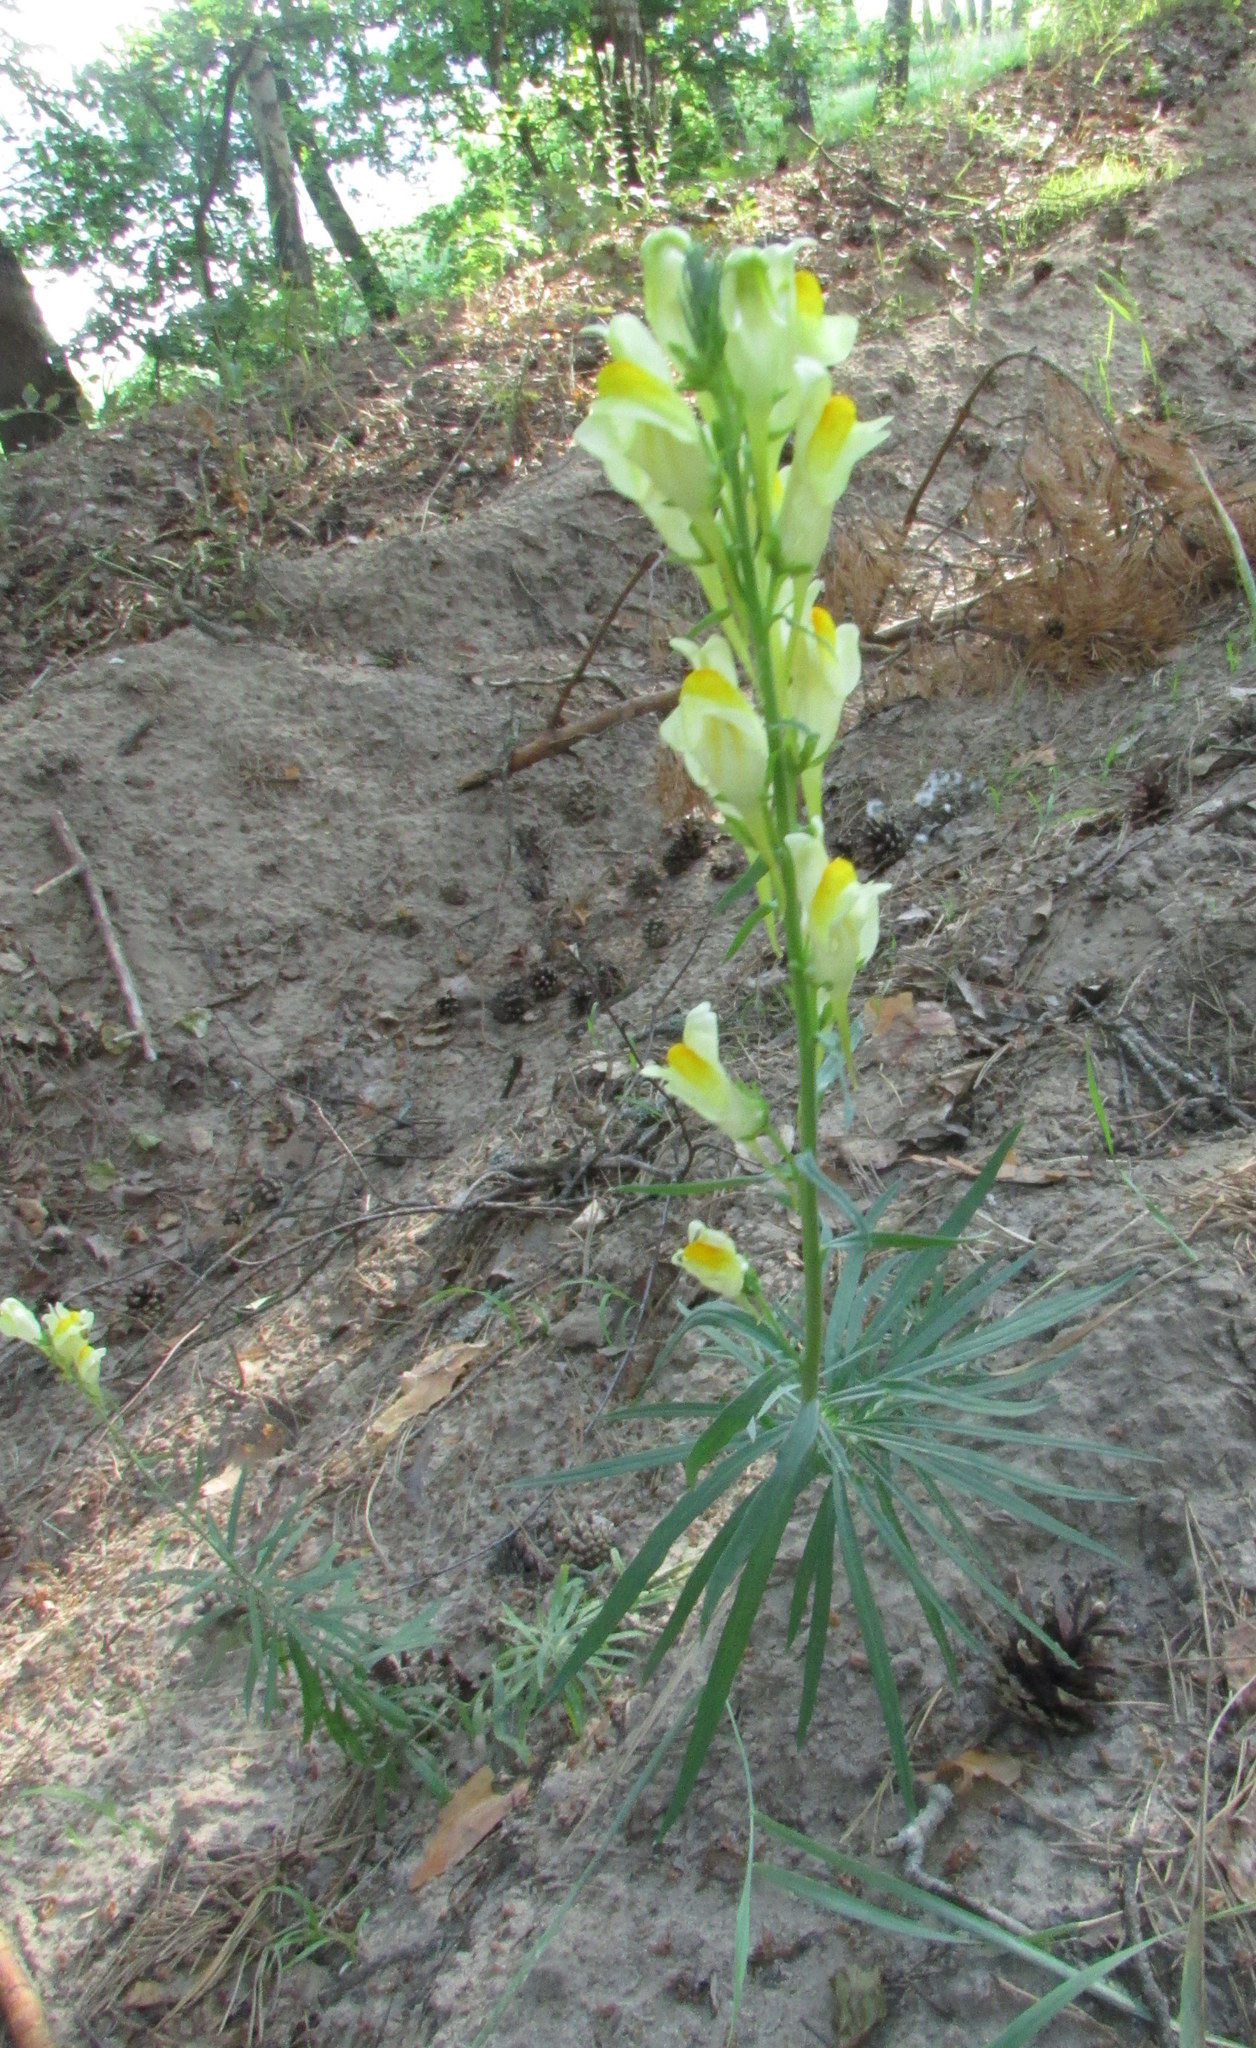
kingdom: Plantae
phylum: Tracheophyta
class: Magnoliopsida
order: Lamiales
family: Plantaginaceae
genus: Linaria
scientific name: Linaria vulgaris
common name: Butter and eggs
